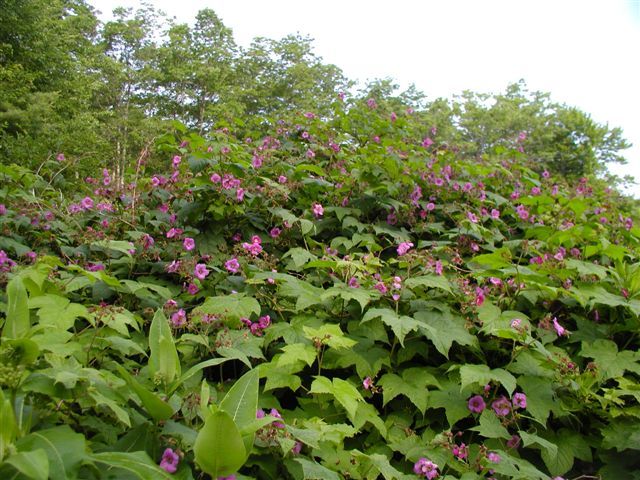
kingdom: Plantae
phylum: Tracheophyta
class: Magnoliopsida
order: Rosales
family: Rosaceae
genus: Rubus
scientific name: Rubus odoratus
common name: Purple-flowered raspberry
